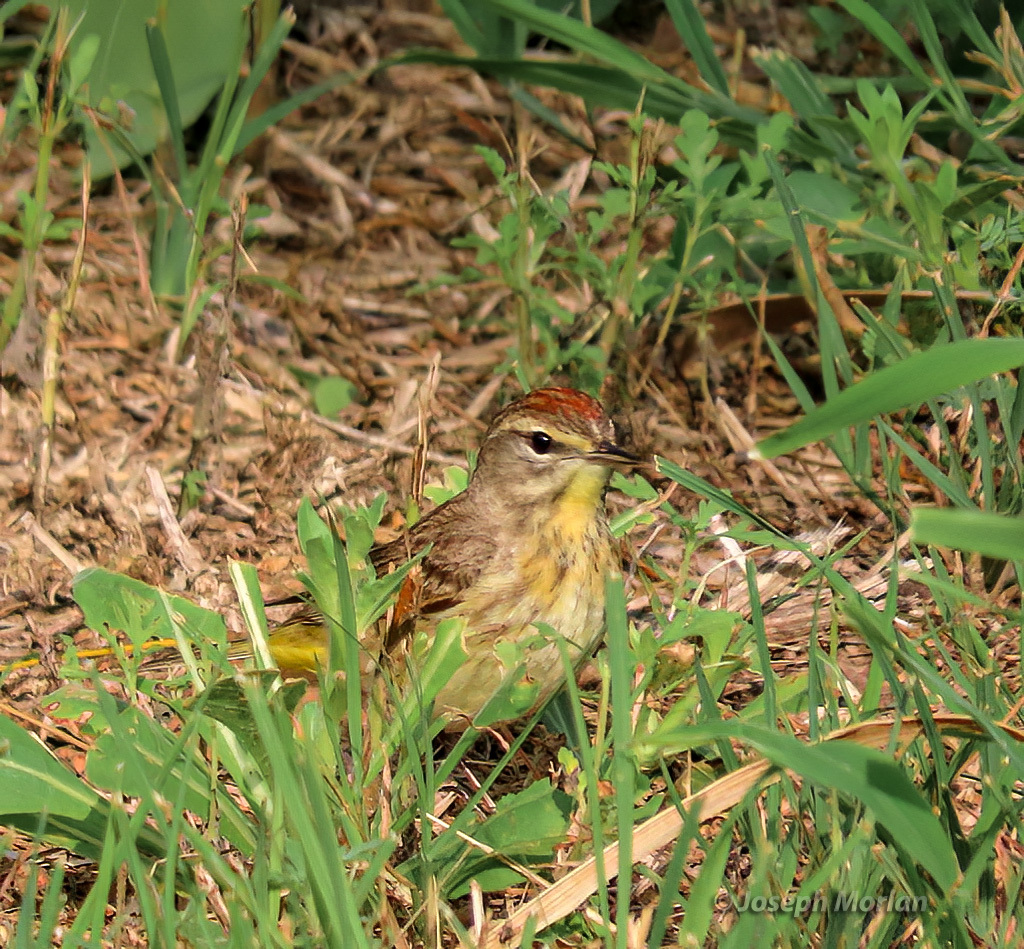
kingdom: Animalia
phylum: Chordata
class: Aves
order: Passeriformes
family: Parulidae
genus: Setophaga
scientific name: Setophaga palmarum
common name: Palm warbler
